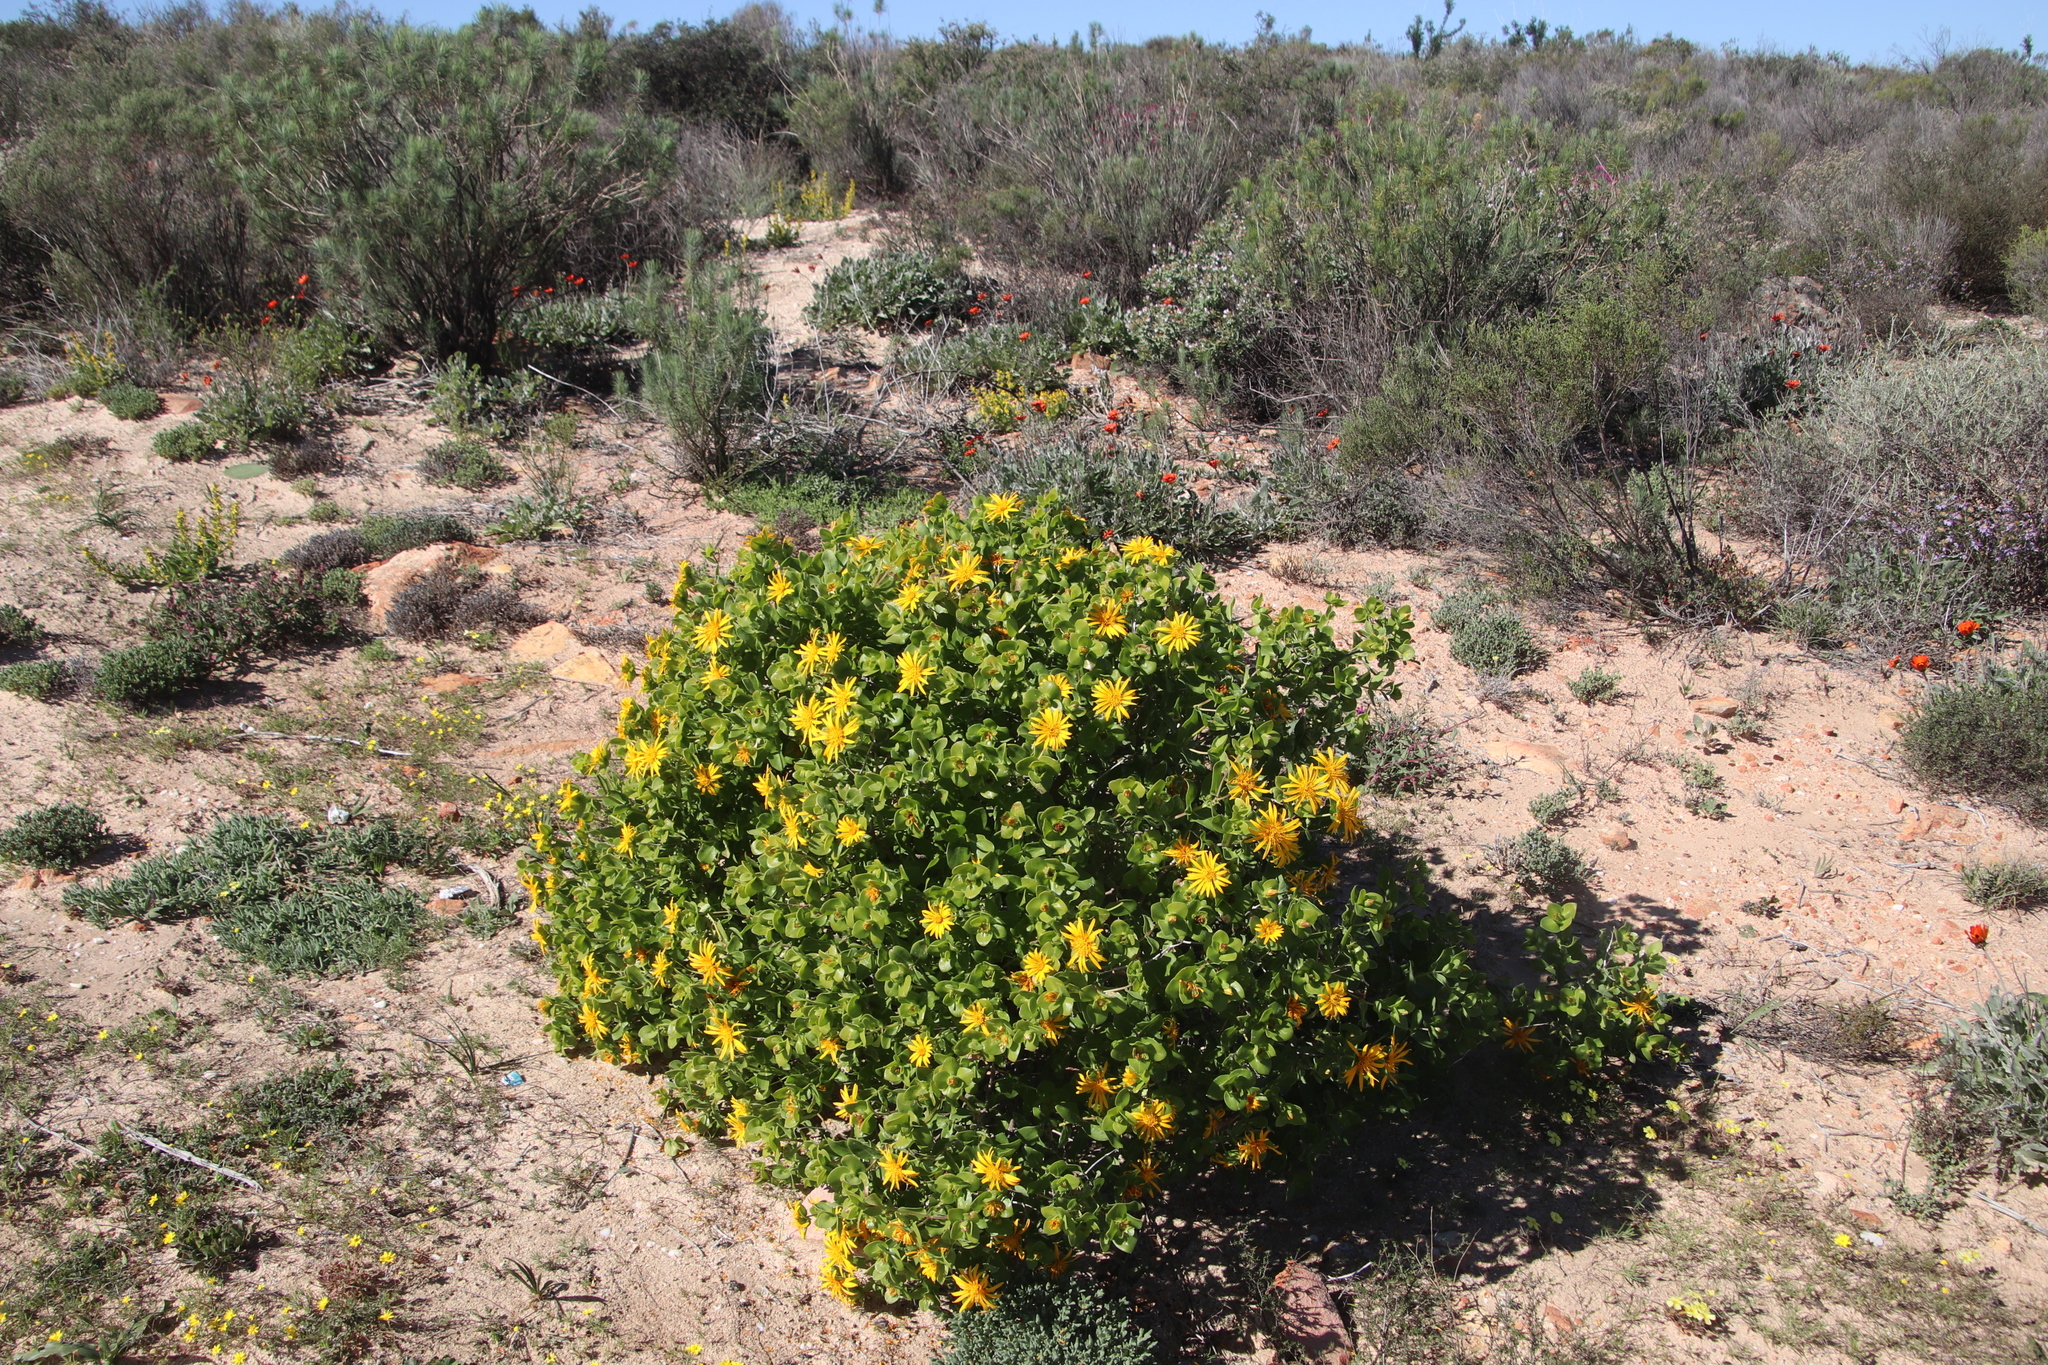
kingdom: Plantae
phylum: Tracheophyta
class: Magnoliopsida
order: Asterales
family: Asteraceae
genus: Didelta
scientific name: Didelta spinosa
